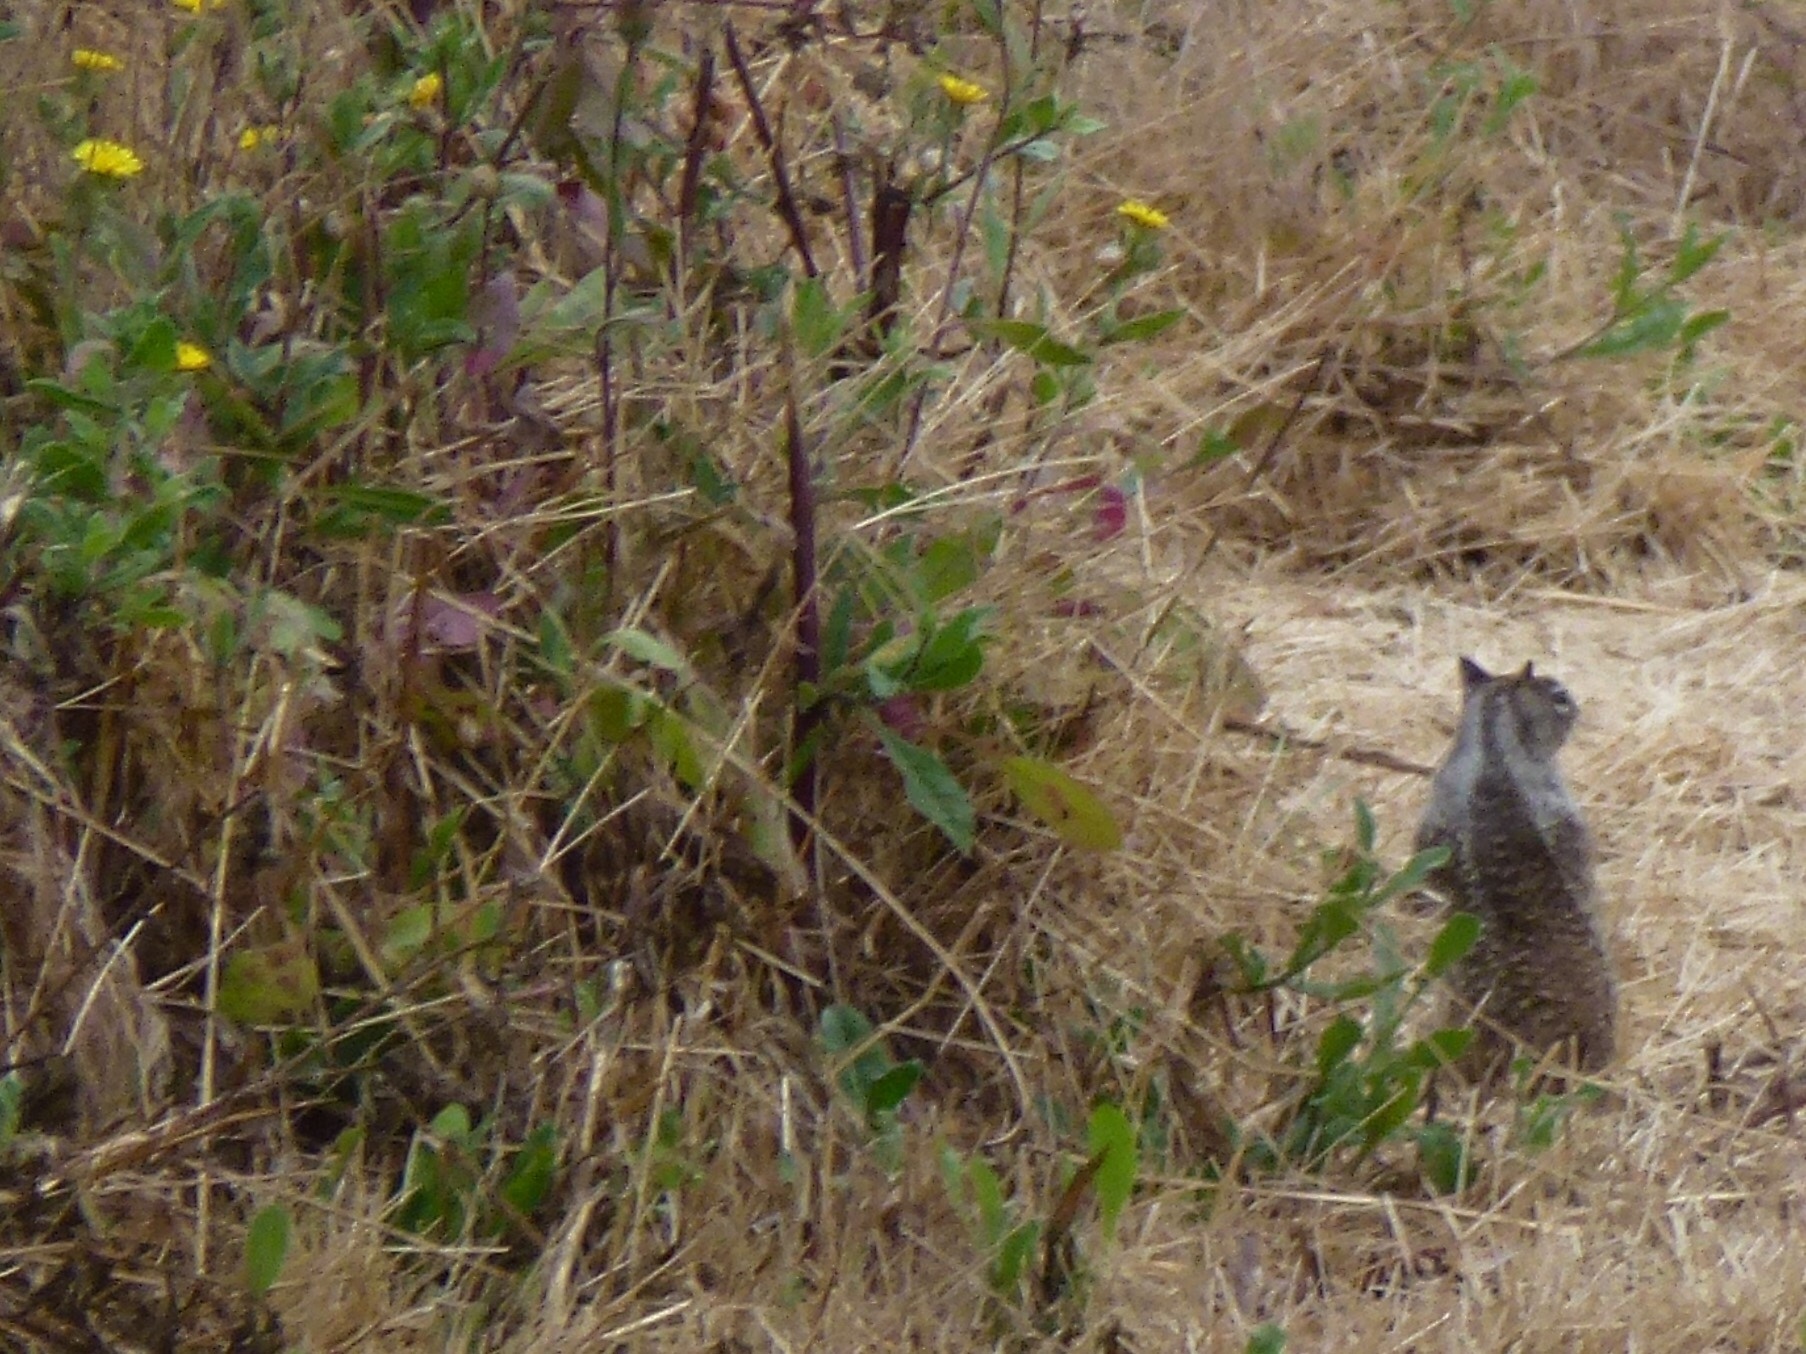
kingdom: Animalia
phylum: Chordata
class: Mammalia
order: Rodentia
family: Sciuridae
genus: Otospermophilus
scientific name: Otospermophilus beecheyi
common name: California ground squirrel
